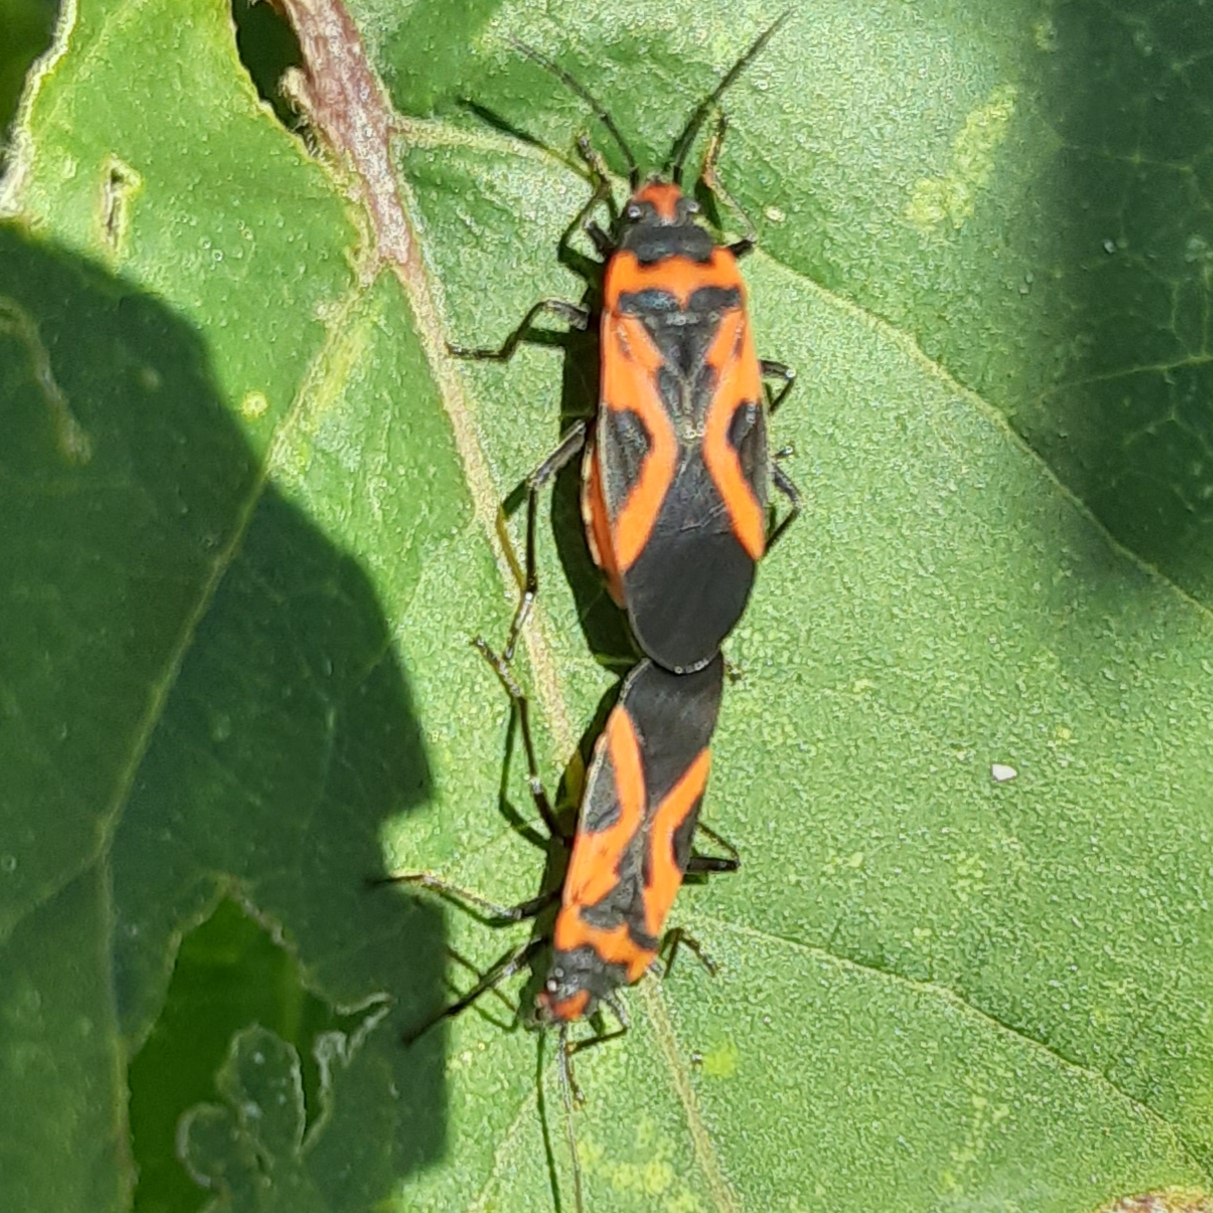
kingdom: Animalia
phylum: Arthropoda
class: Insecta
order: Hemiptera
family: Lygaeidae
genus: Lygaeus
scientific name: Lygaeus turcicus
